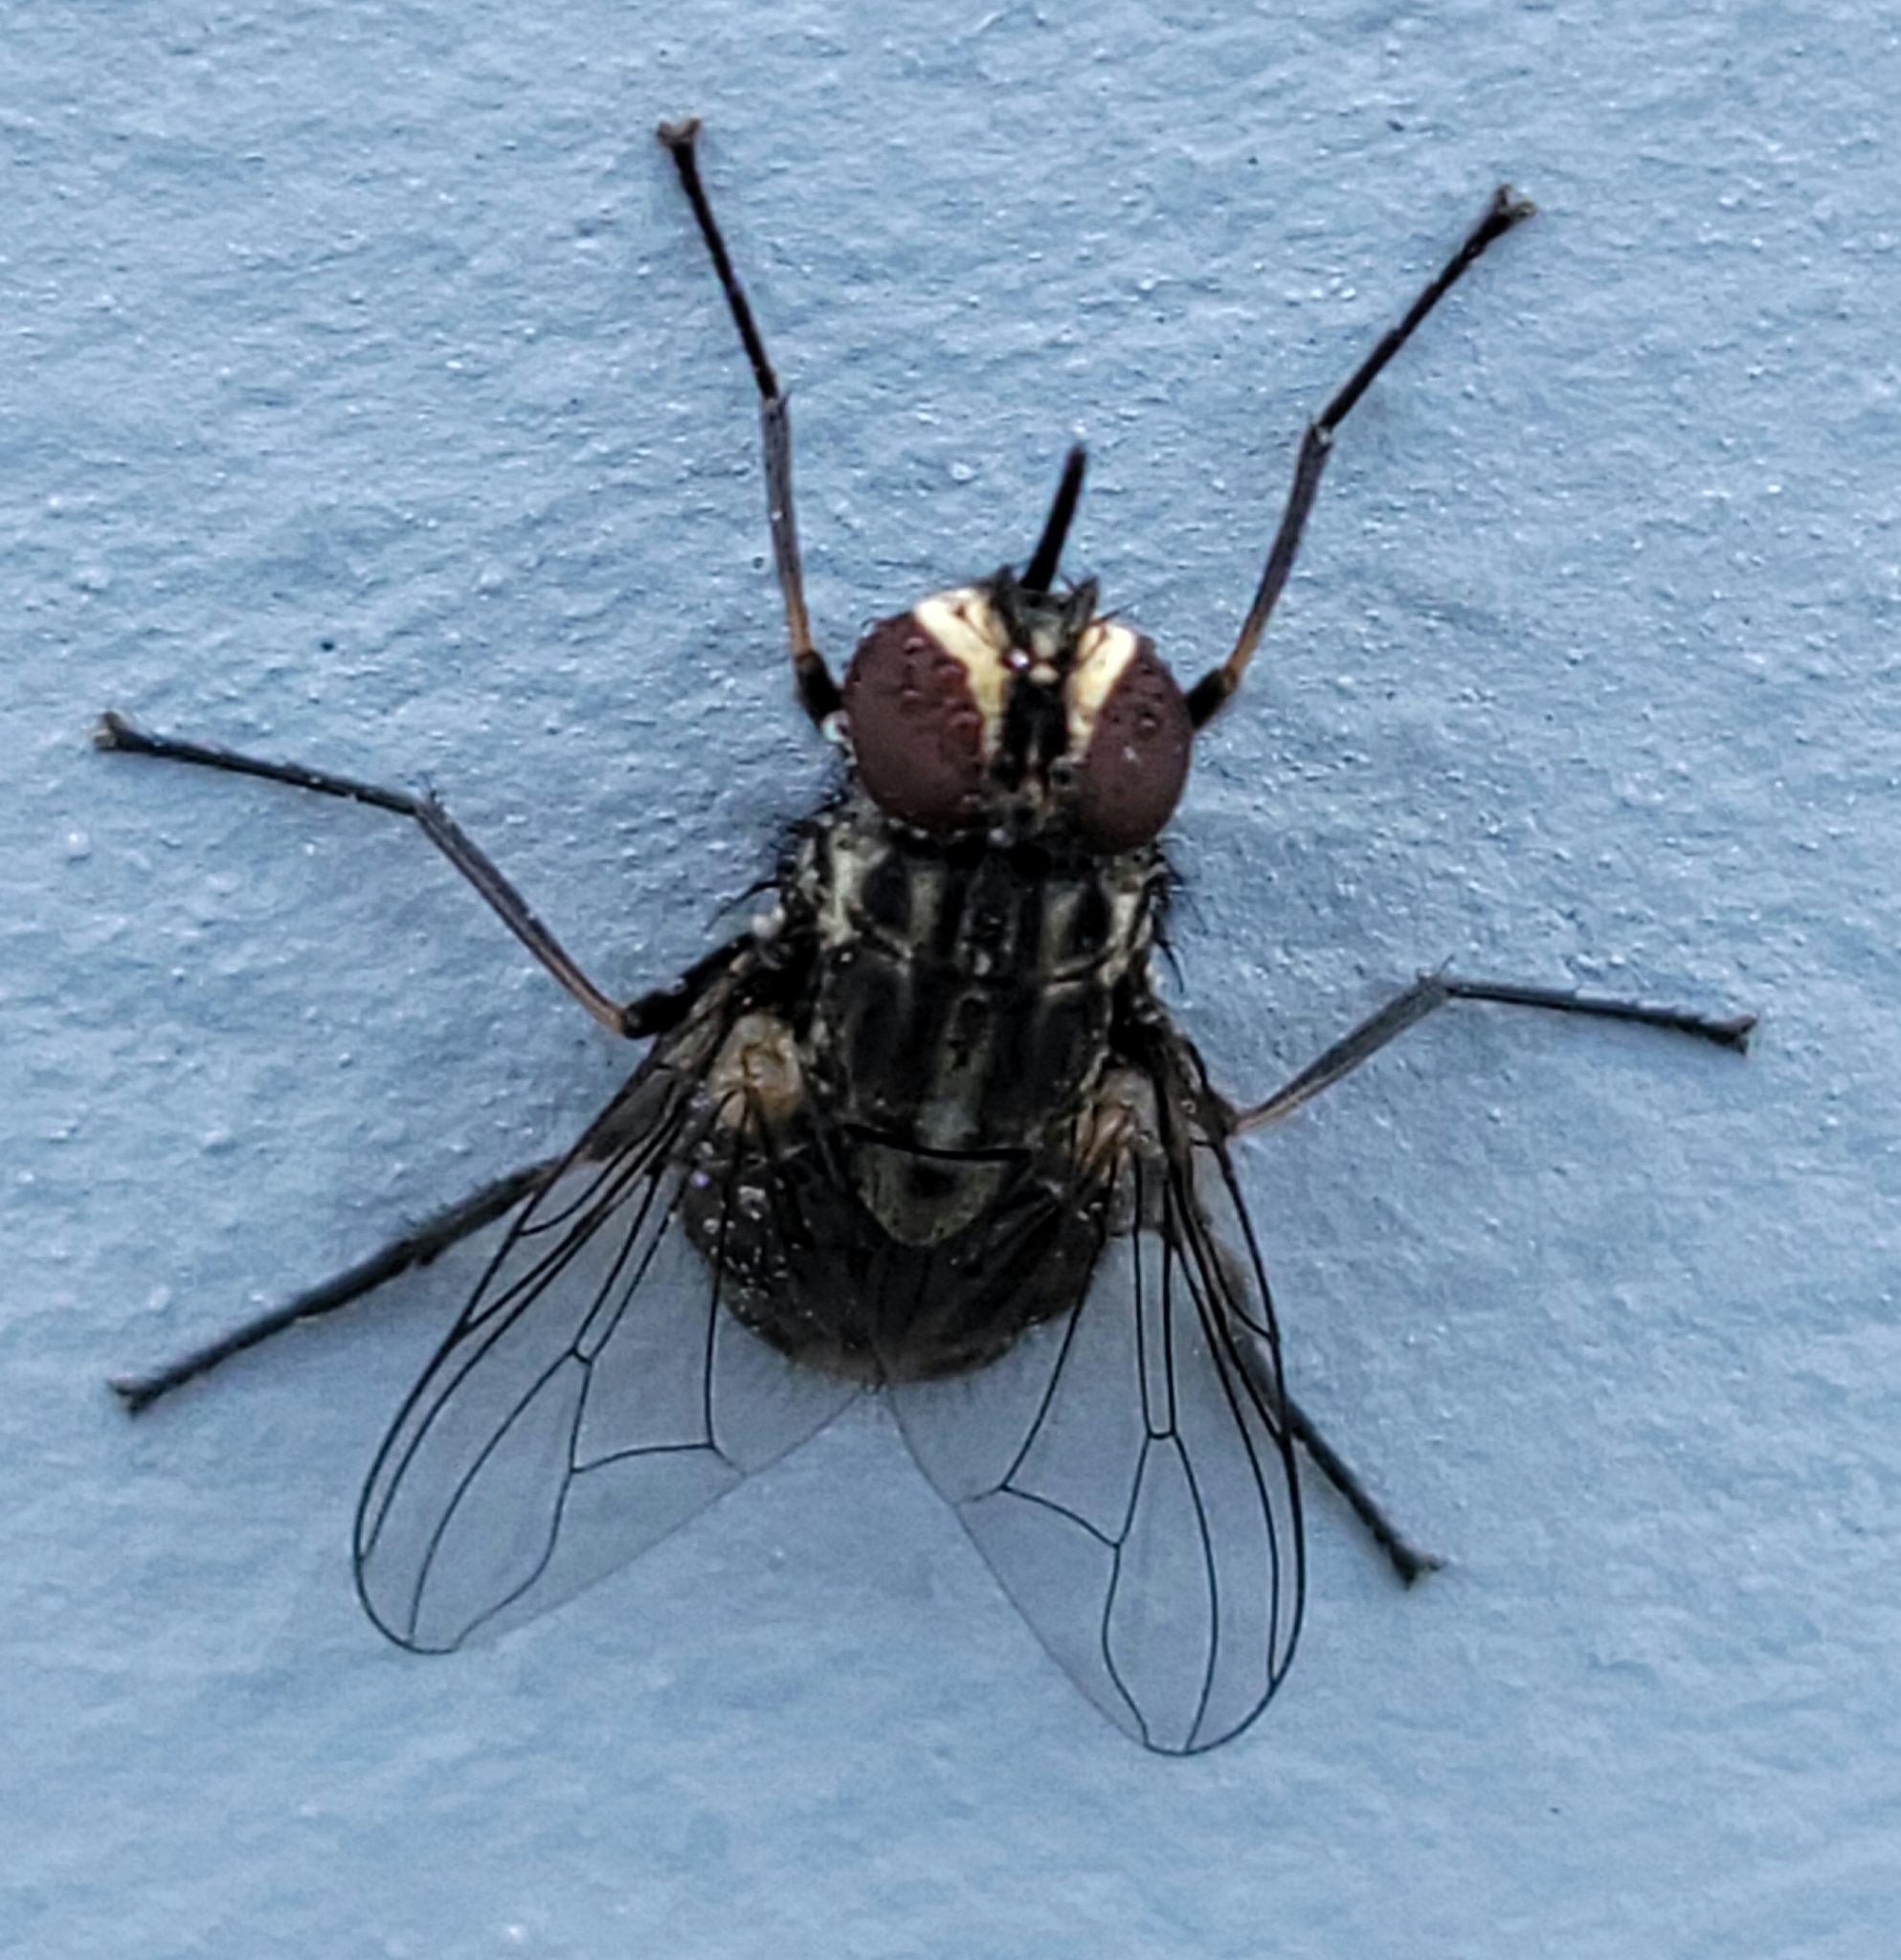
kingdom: Animalia
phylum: Arthropoda
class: Insecta
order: Diptera
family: Muscidae
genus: Stomoxys
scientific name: Stomoxys calcitrans
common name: Stable fly
